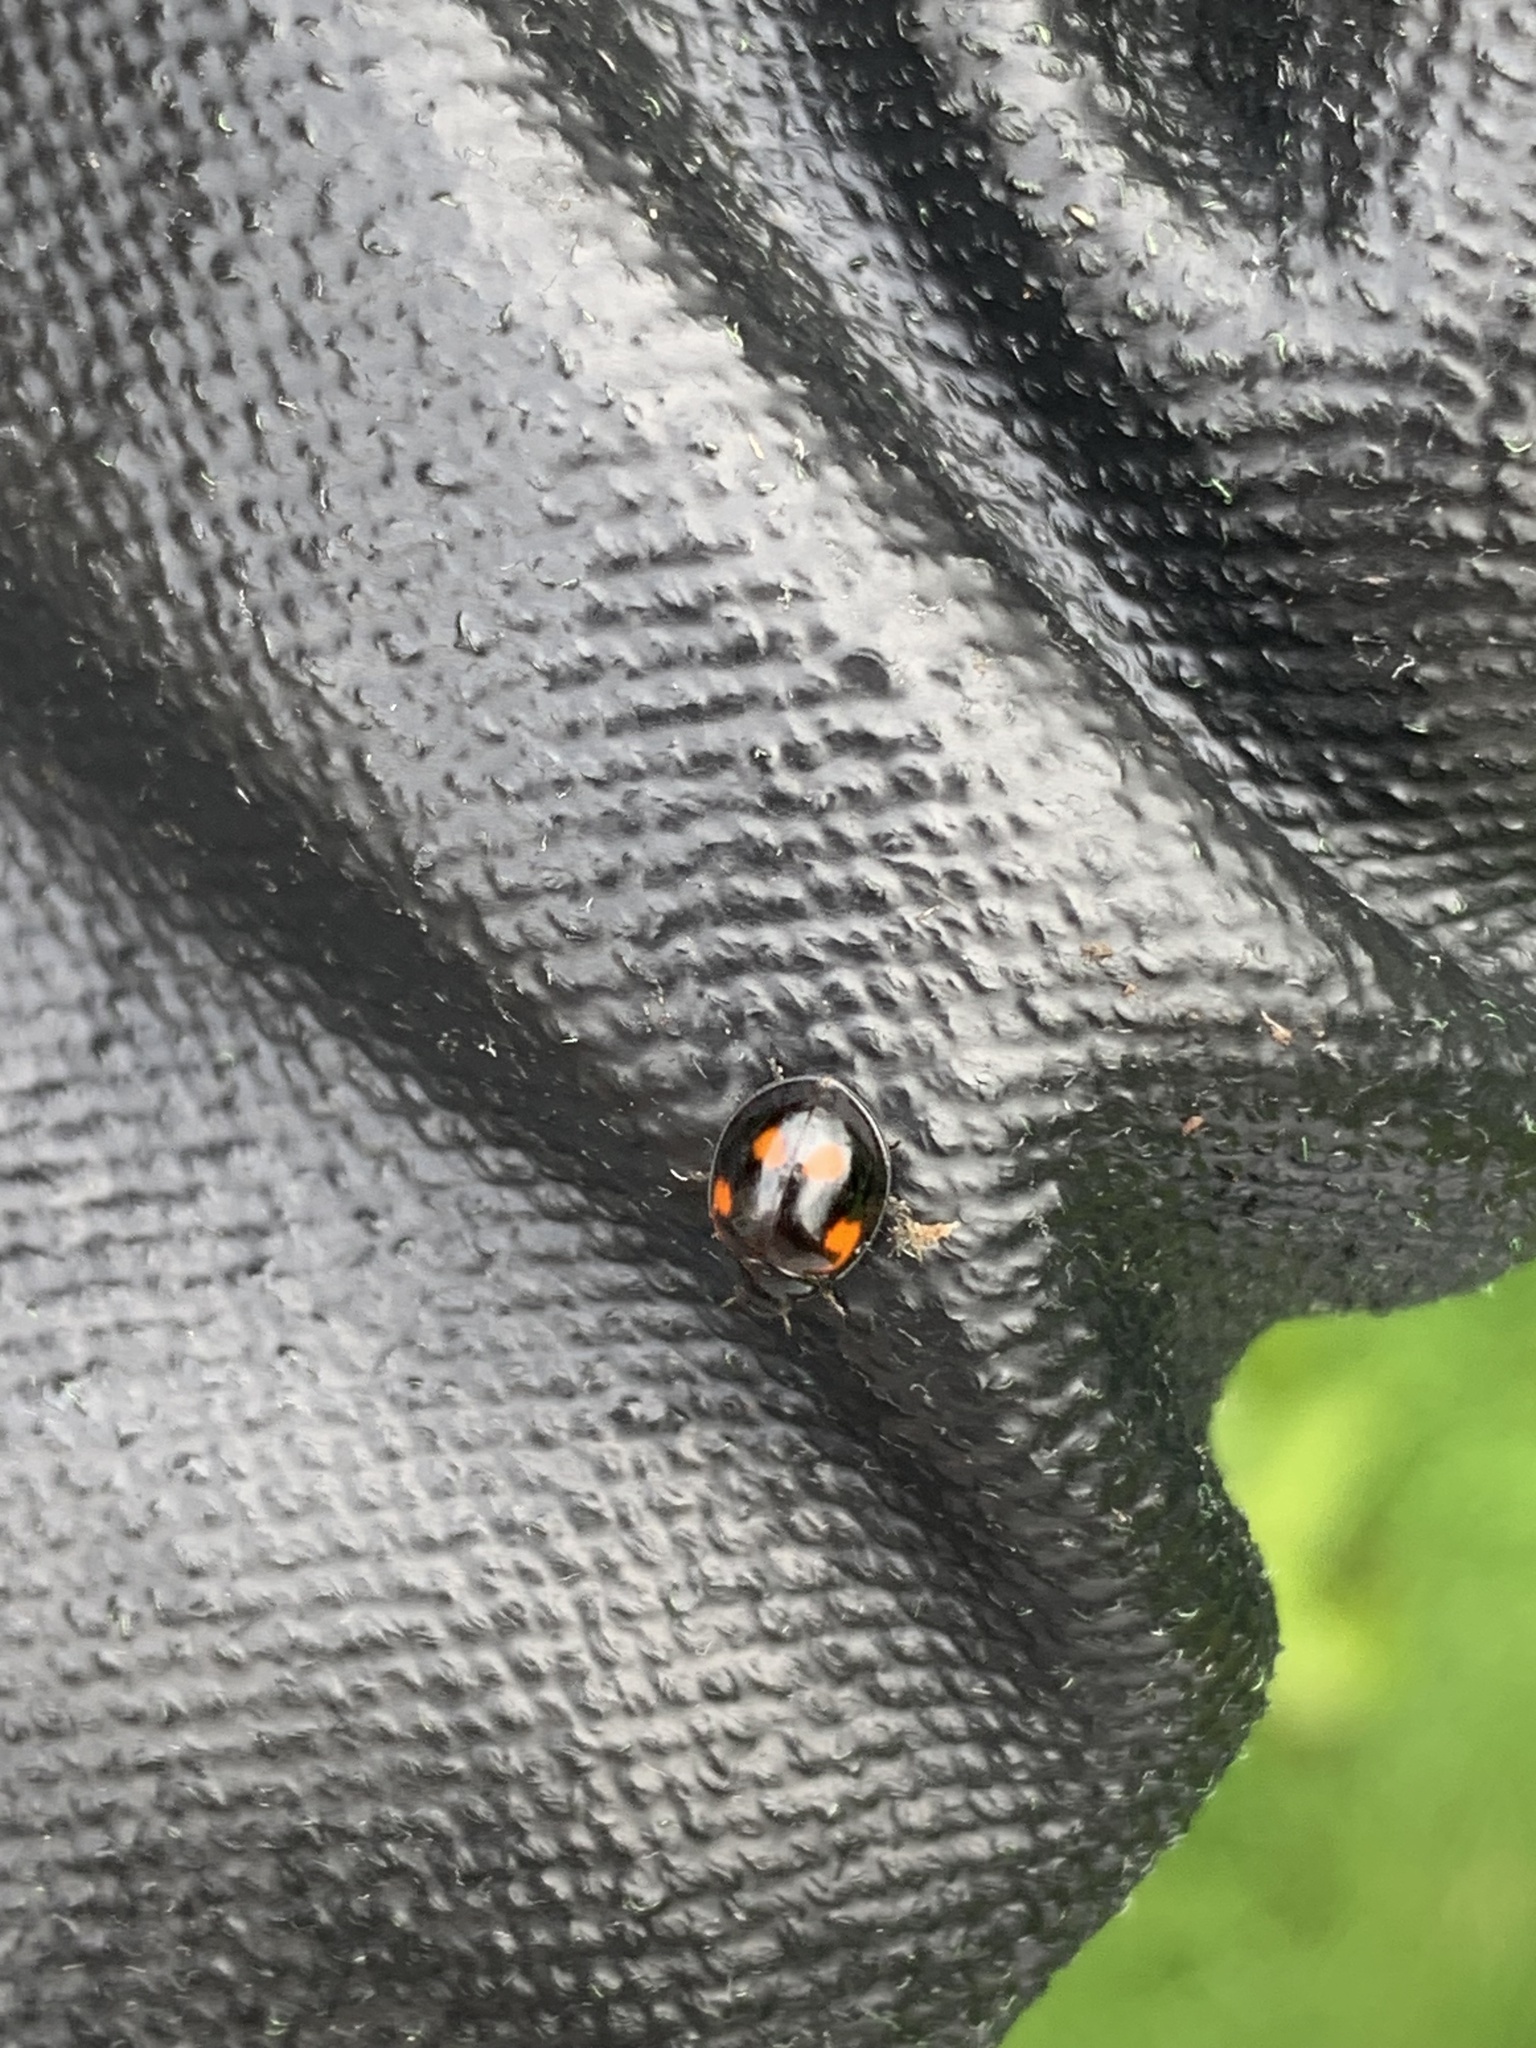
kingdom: Animalia
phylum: Arthropoda
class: Insecta
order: Coleoptera
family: Coccinellidae
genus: Brumus
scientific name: Brumus quadripustulatus
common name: Ladybird beetle
